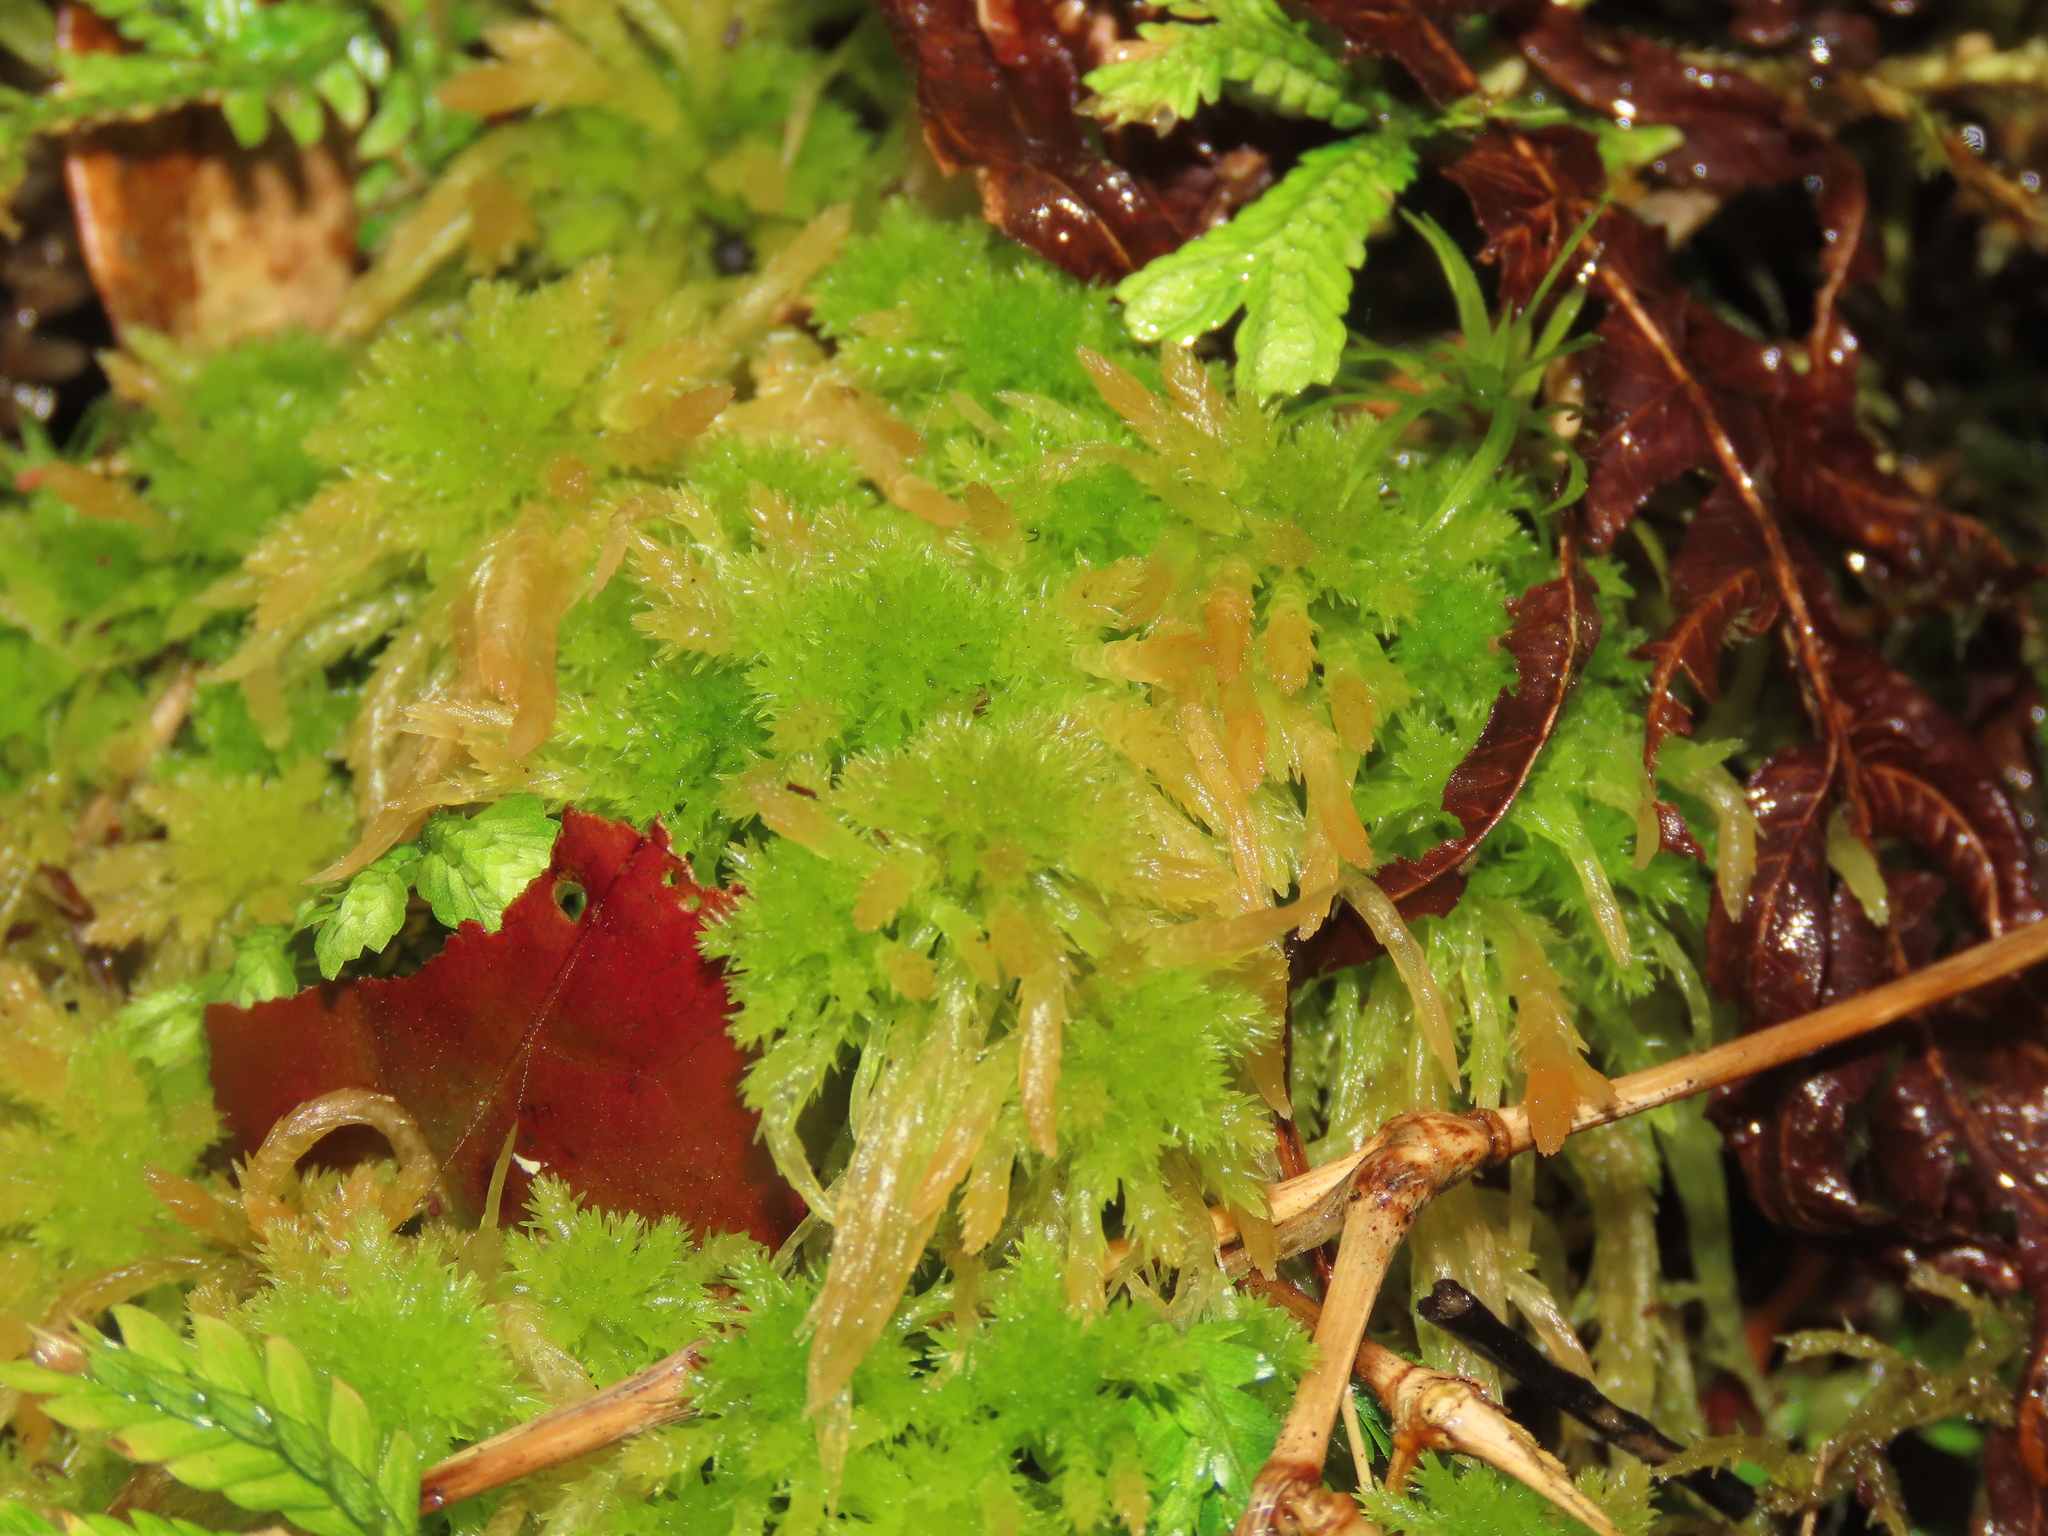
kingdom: Plantae
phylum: Bryophyta
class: Sphagnopsida
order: Sphagnales
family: Sphagnaceae
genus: Sphagnum
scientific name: Sphagnum junghuhnianum
